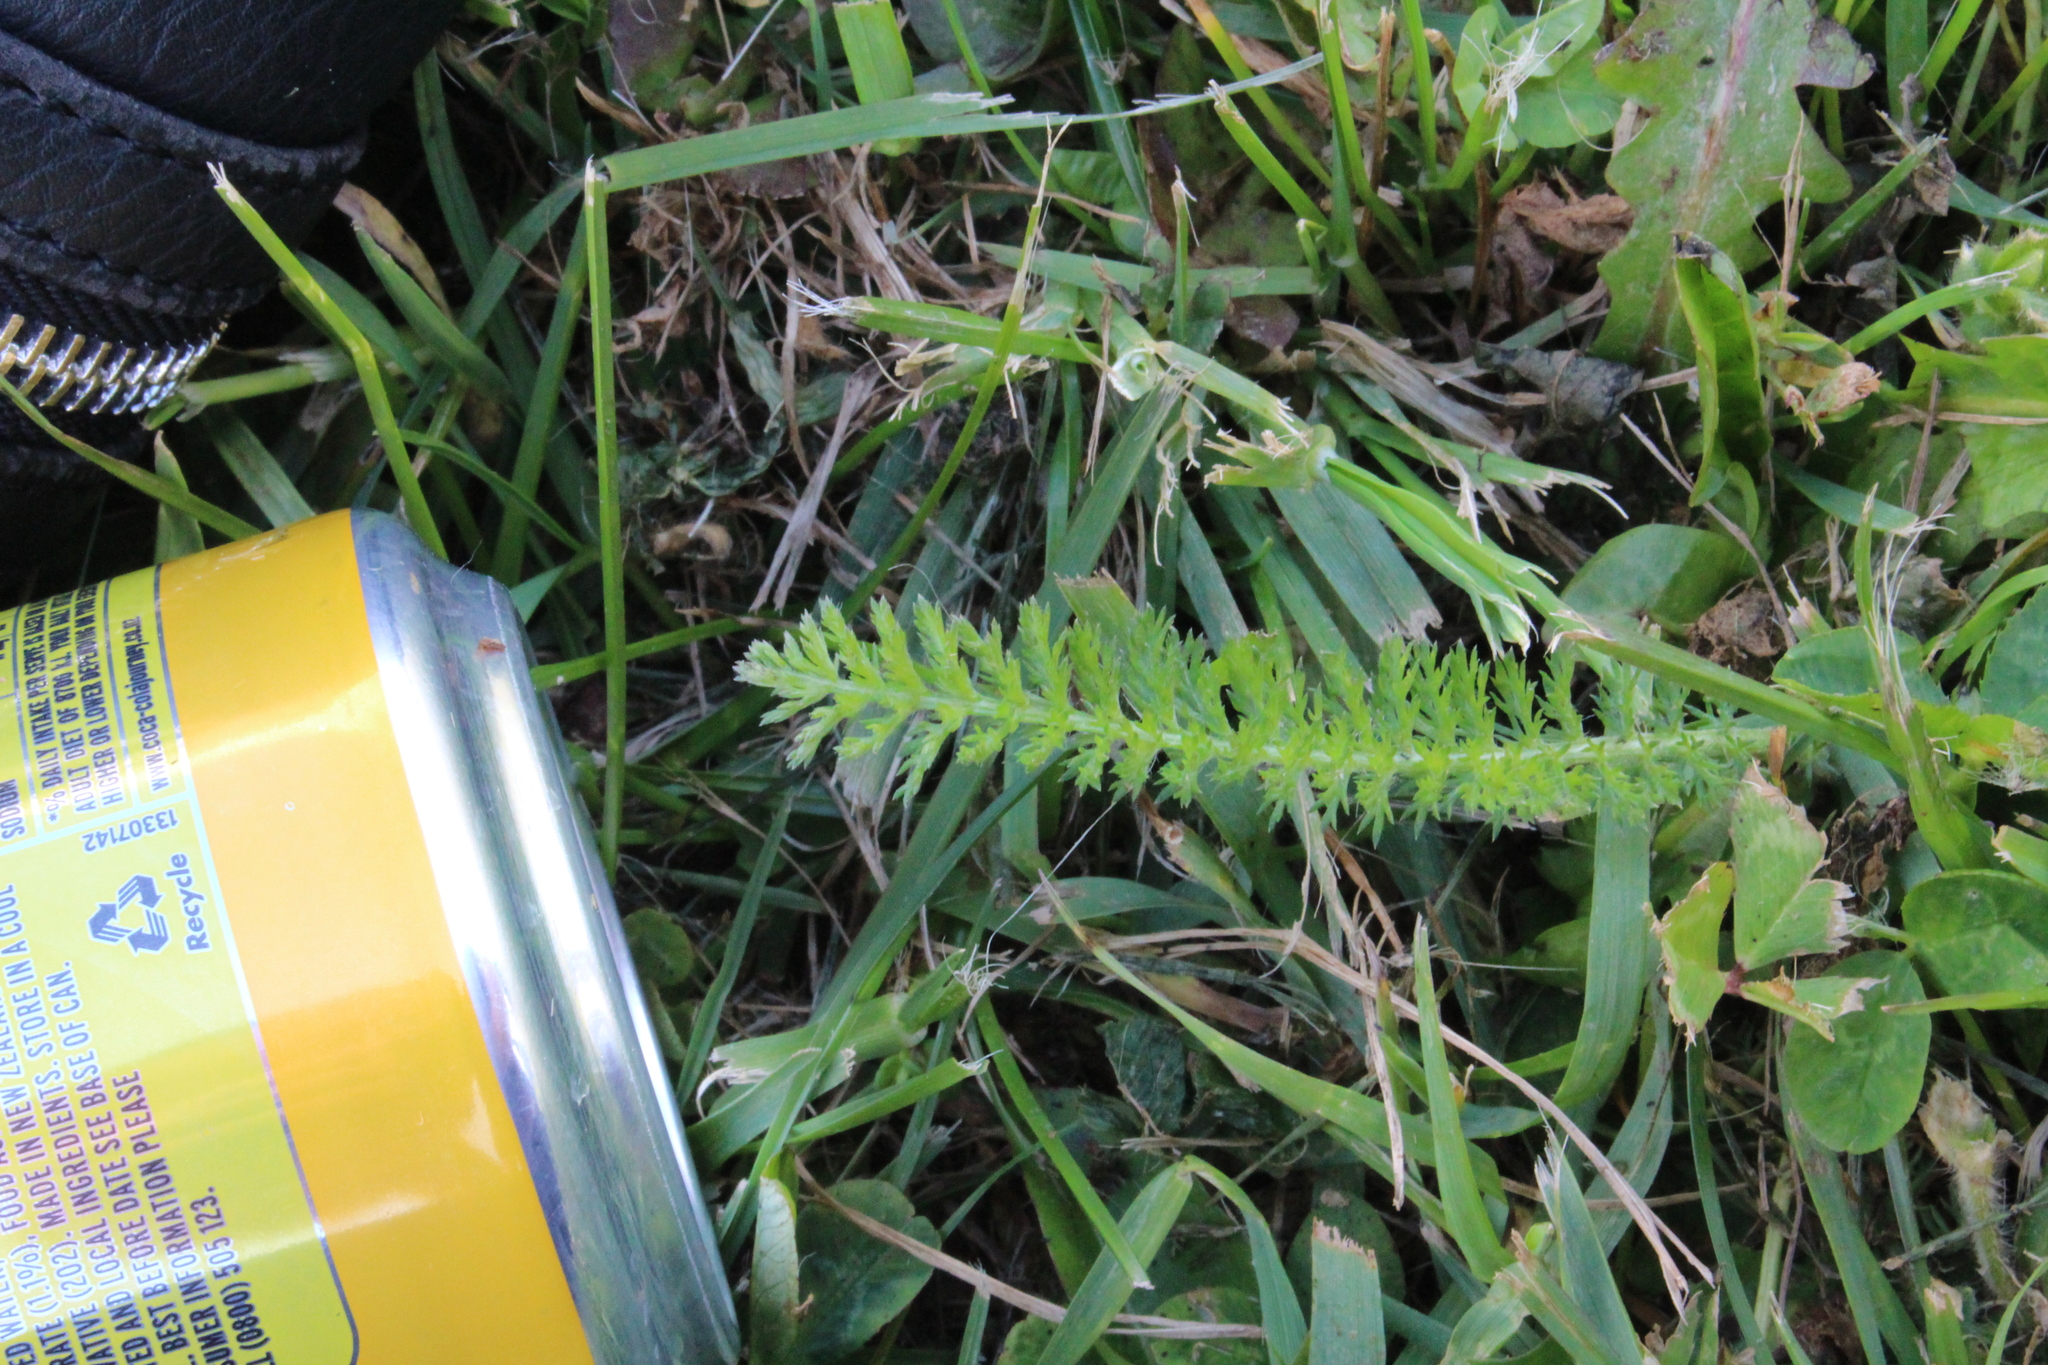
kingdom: Plantae
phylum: Tracheophyta
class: Magnoliopsida
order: Asterales
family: Asteraceae
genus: Achillea
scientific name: Achillea millefolium
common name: Yarrow
